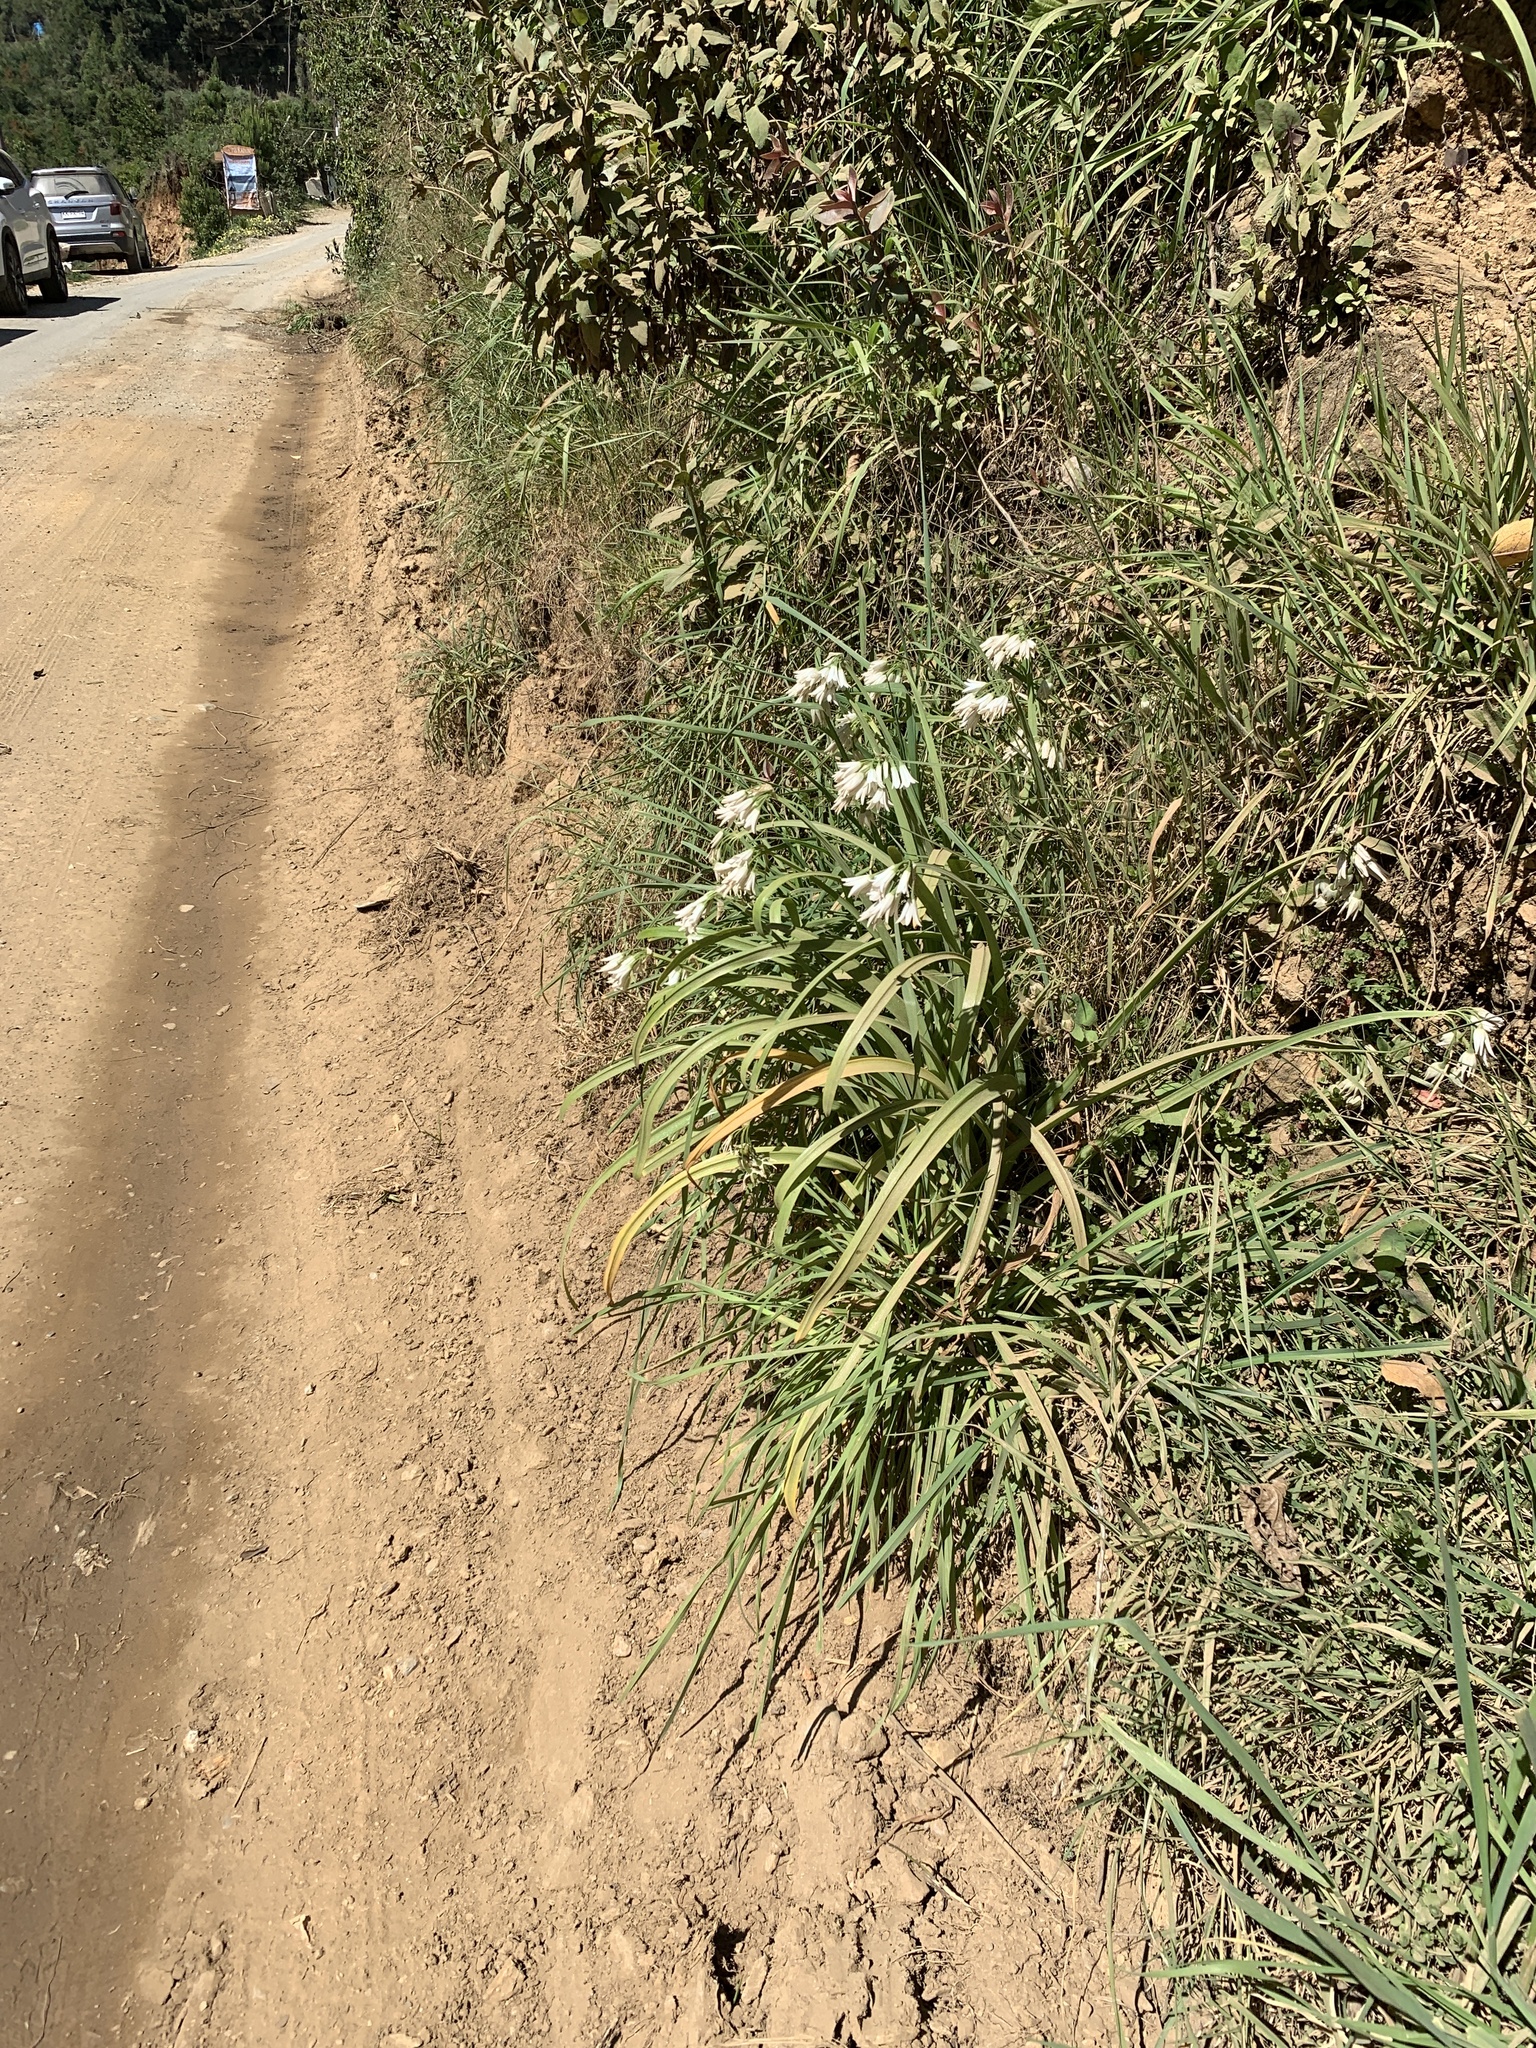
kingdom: Plantae
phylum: Tracheophyta
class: Liliopsida
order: Asparagales
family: Amaryllidaceae
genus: Allium
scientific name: Allium triquetrum
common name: Three-cornered garlic
